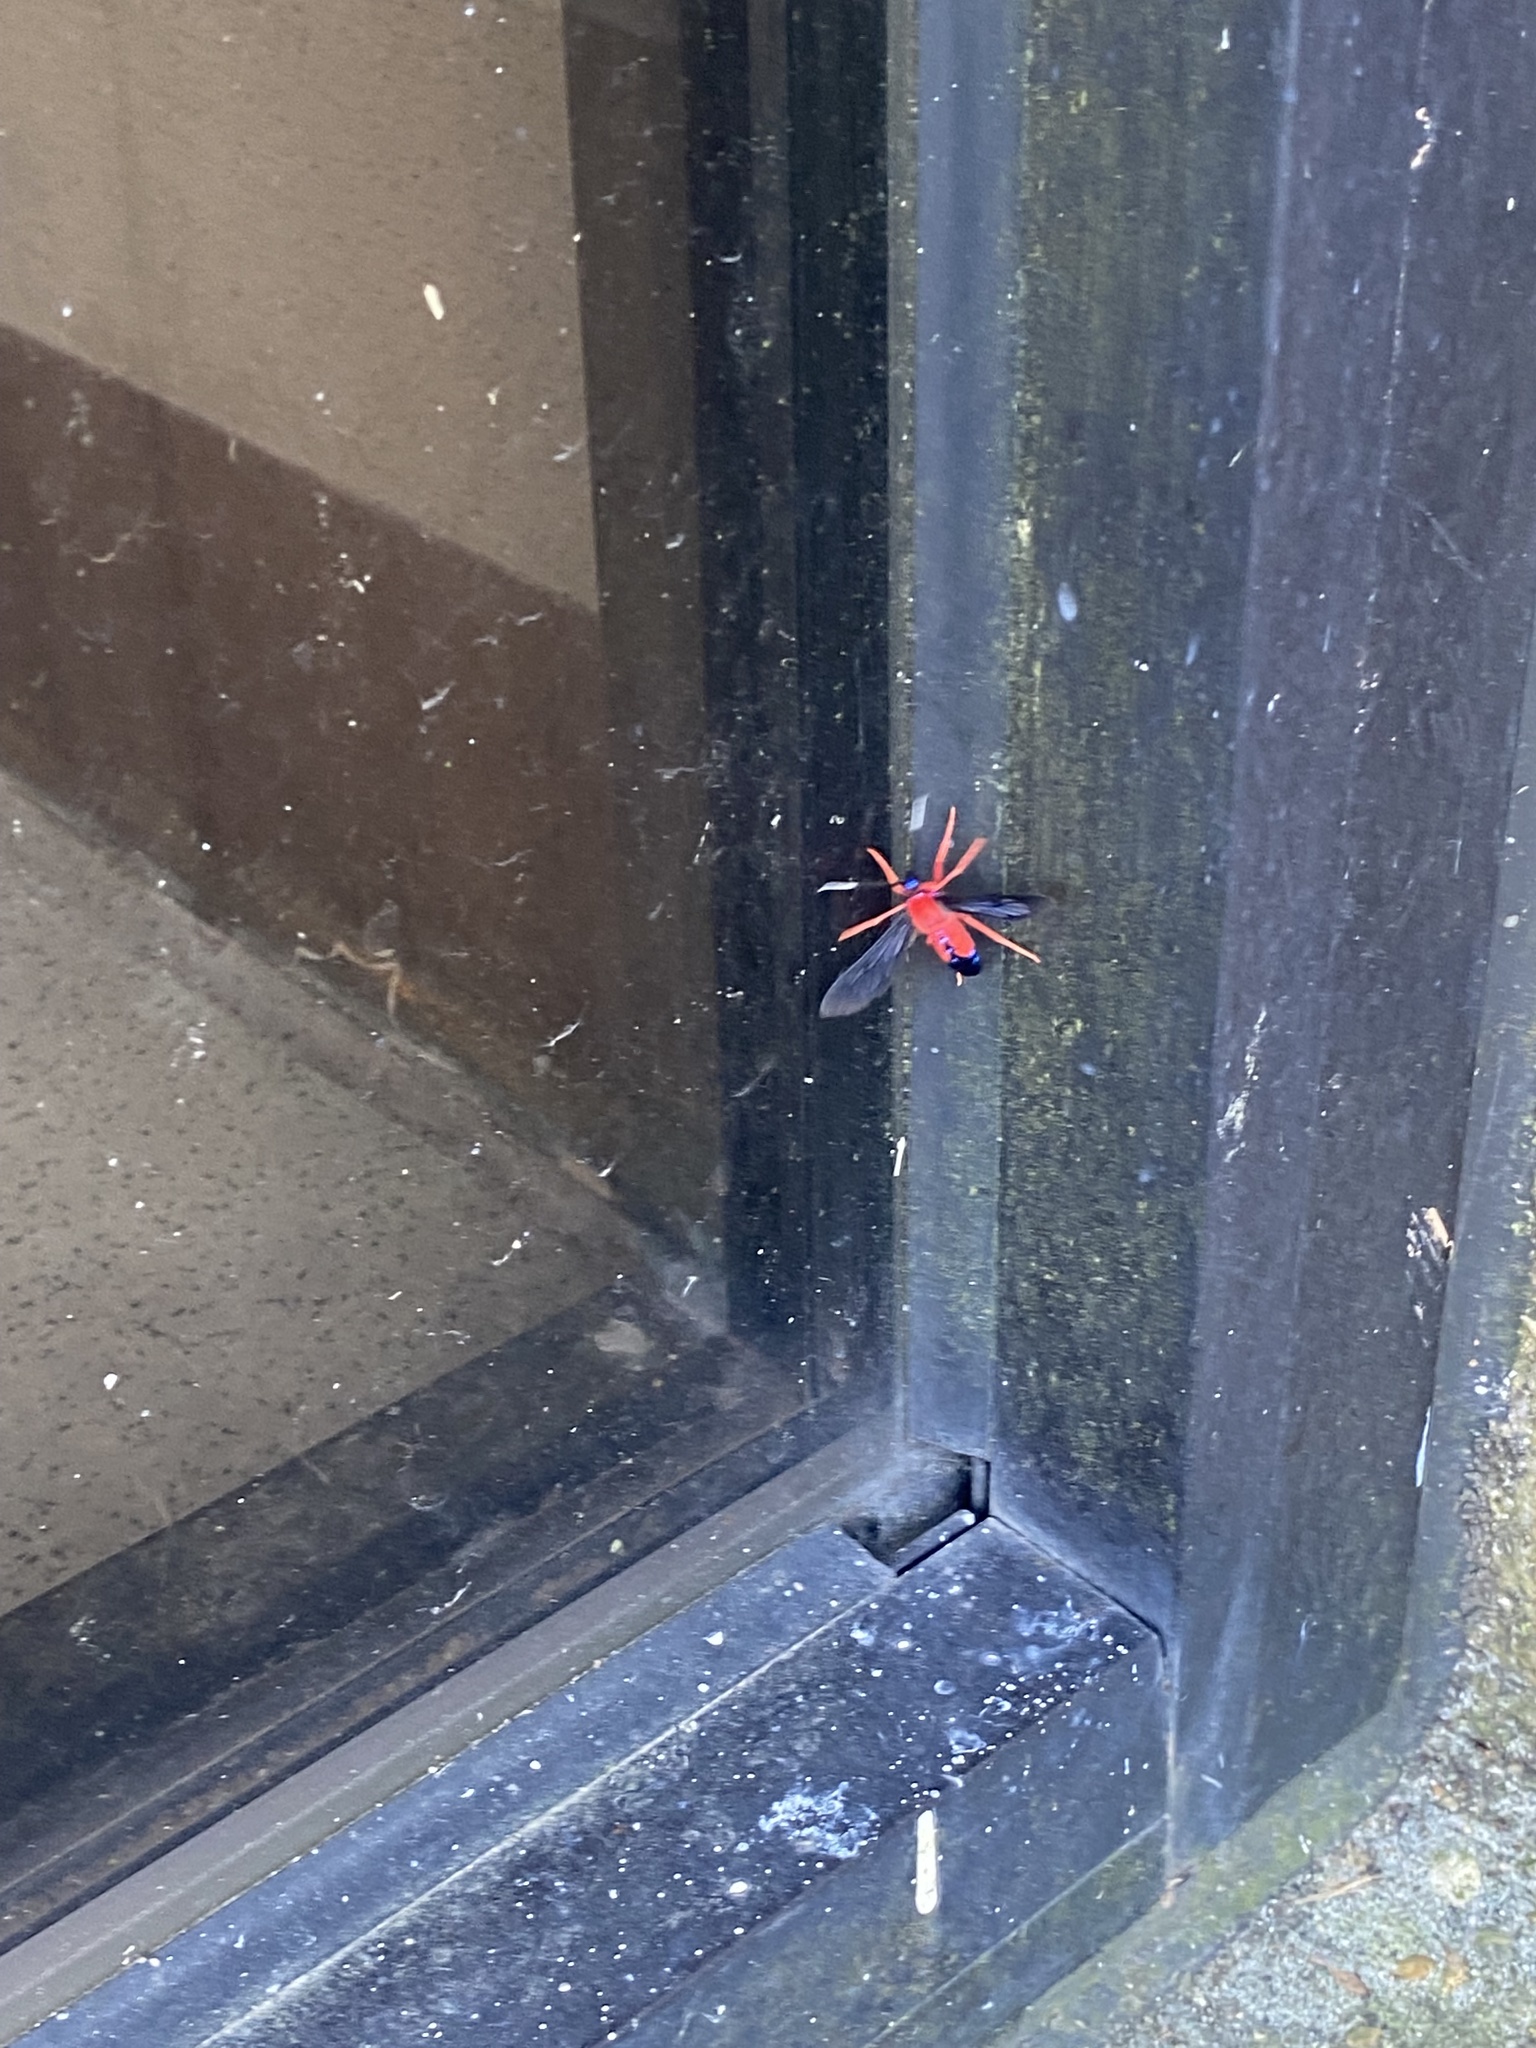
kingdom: Animalia
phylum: Arthropoda
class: Insecta
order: Lepidoptera
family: Erebidae
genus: Cosmosoma
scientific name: Cosmosoma myrodora
